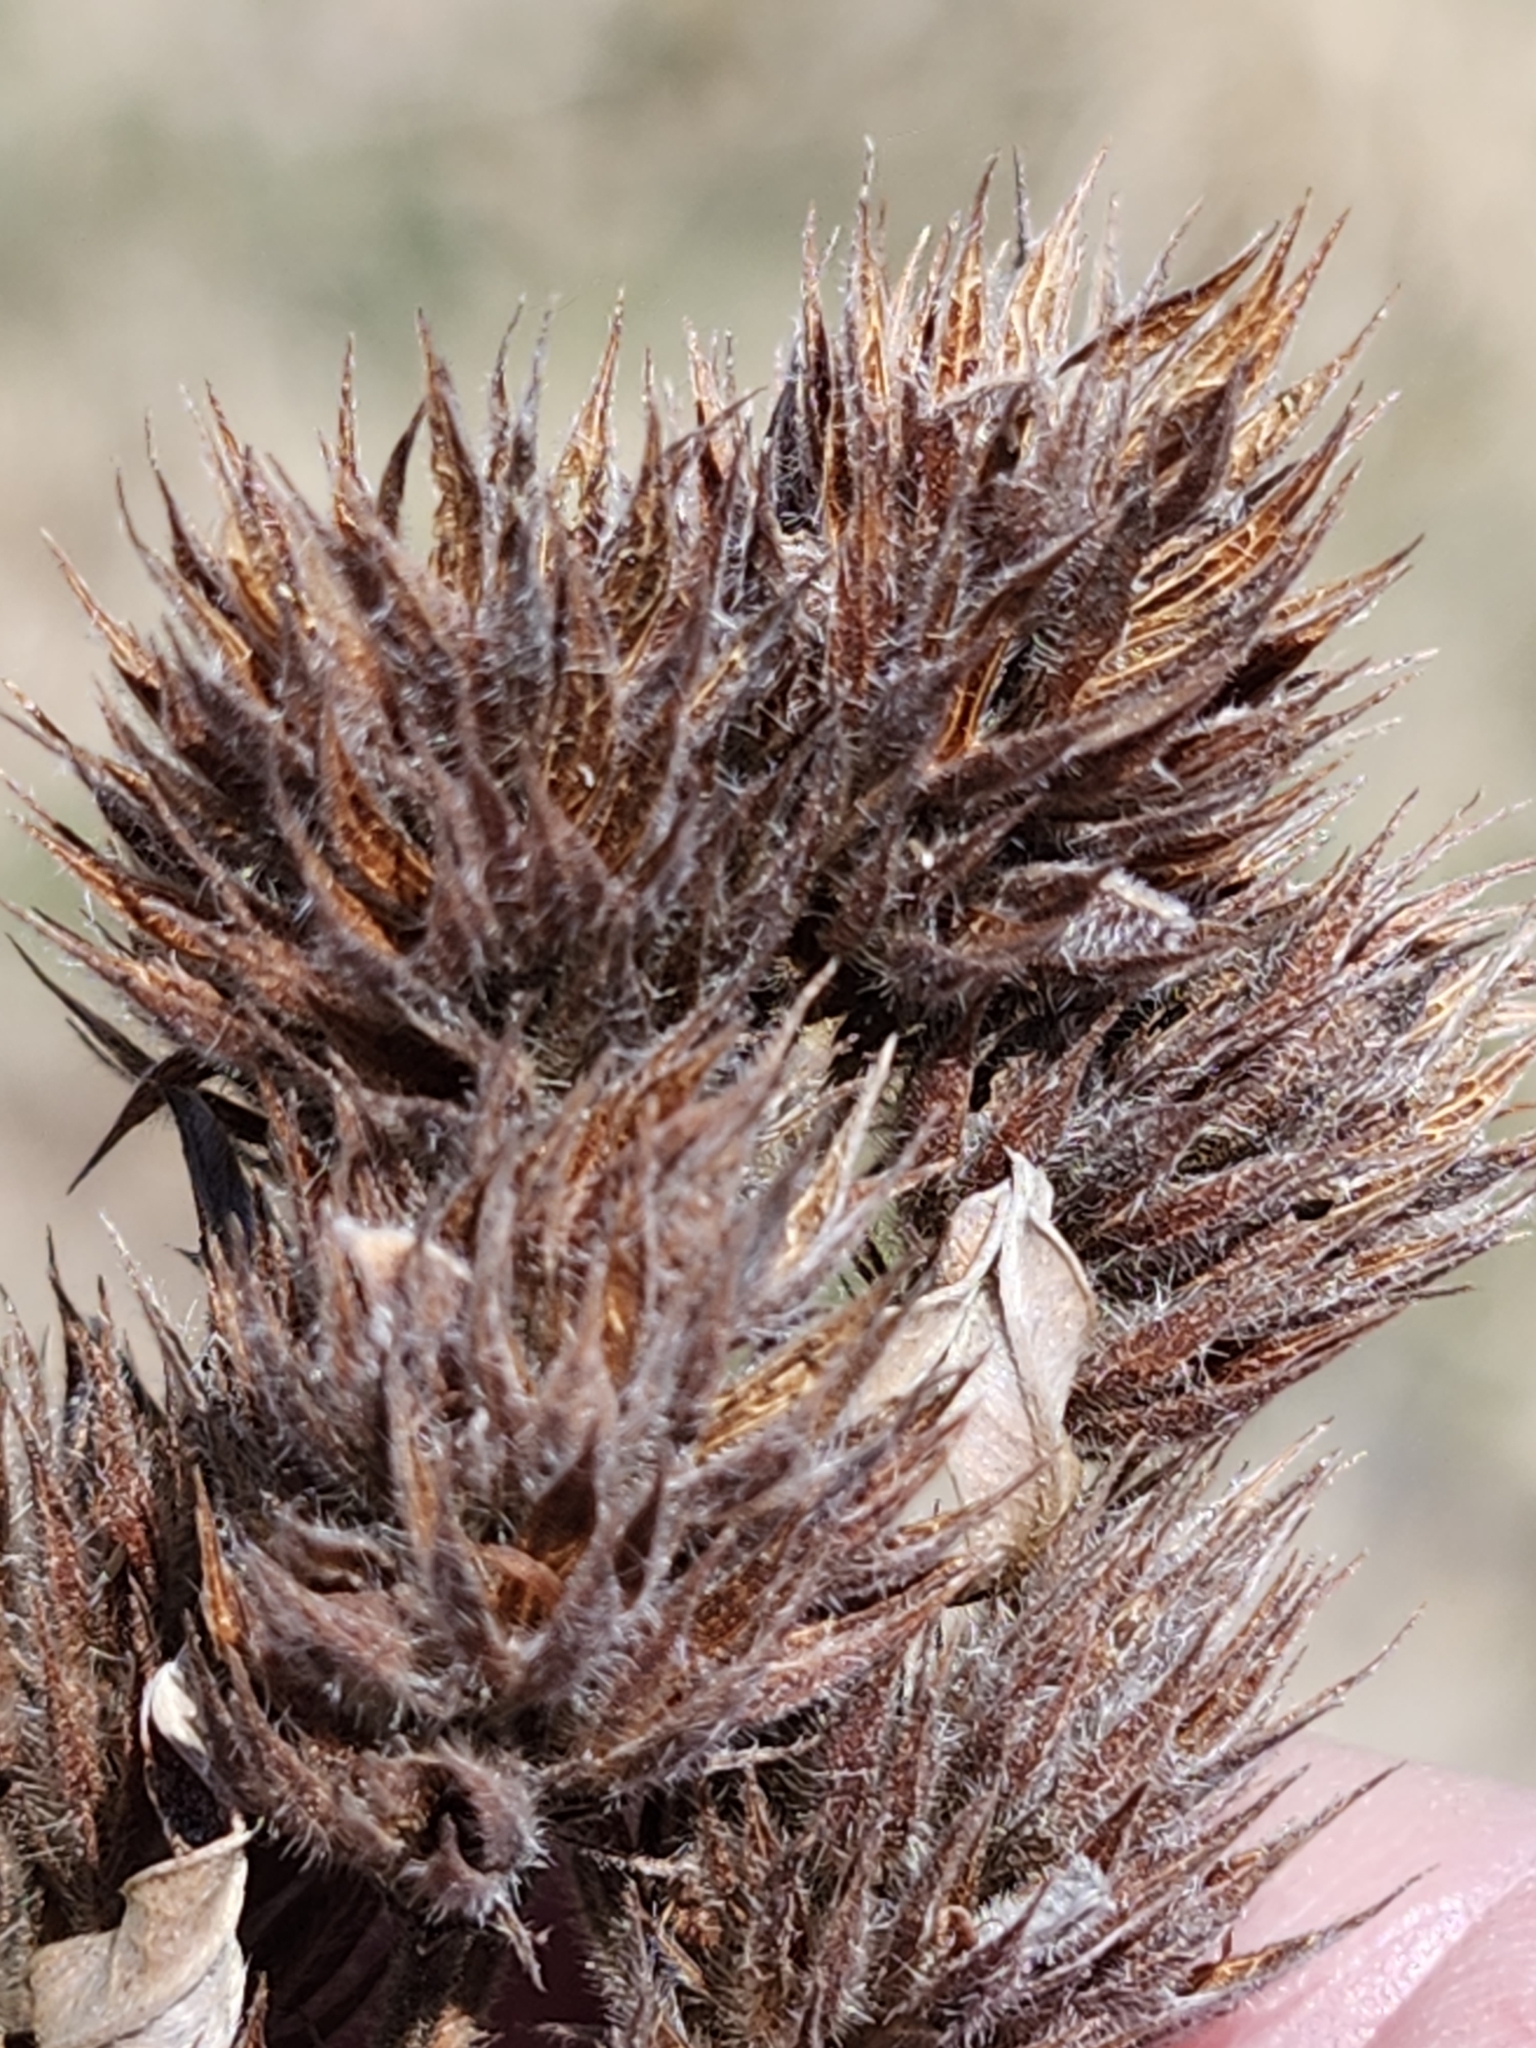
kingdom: Plantae
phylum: Tracheophyta
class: Magnoliopsida
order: Fabales
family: Fabaceae
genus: Lespedeza
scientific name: Lespedeza capitata
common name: Dusty clover
